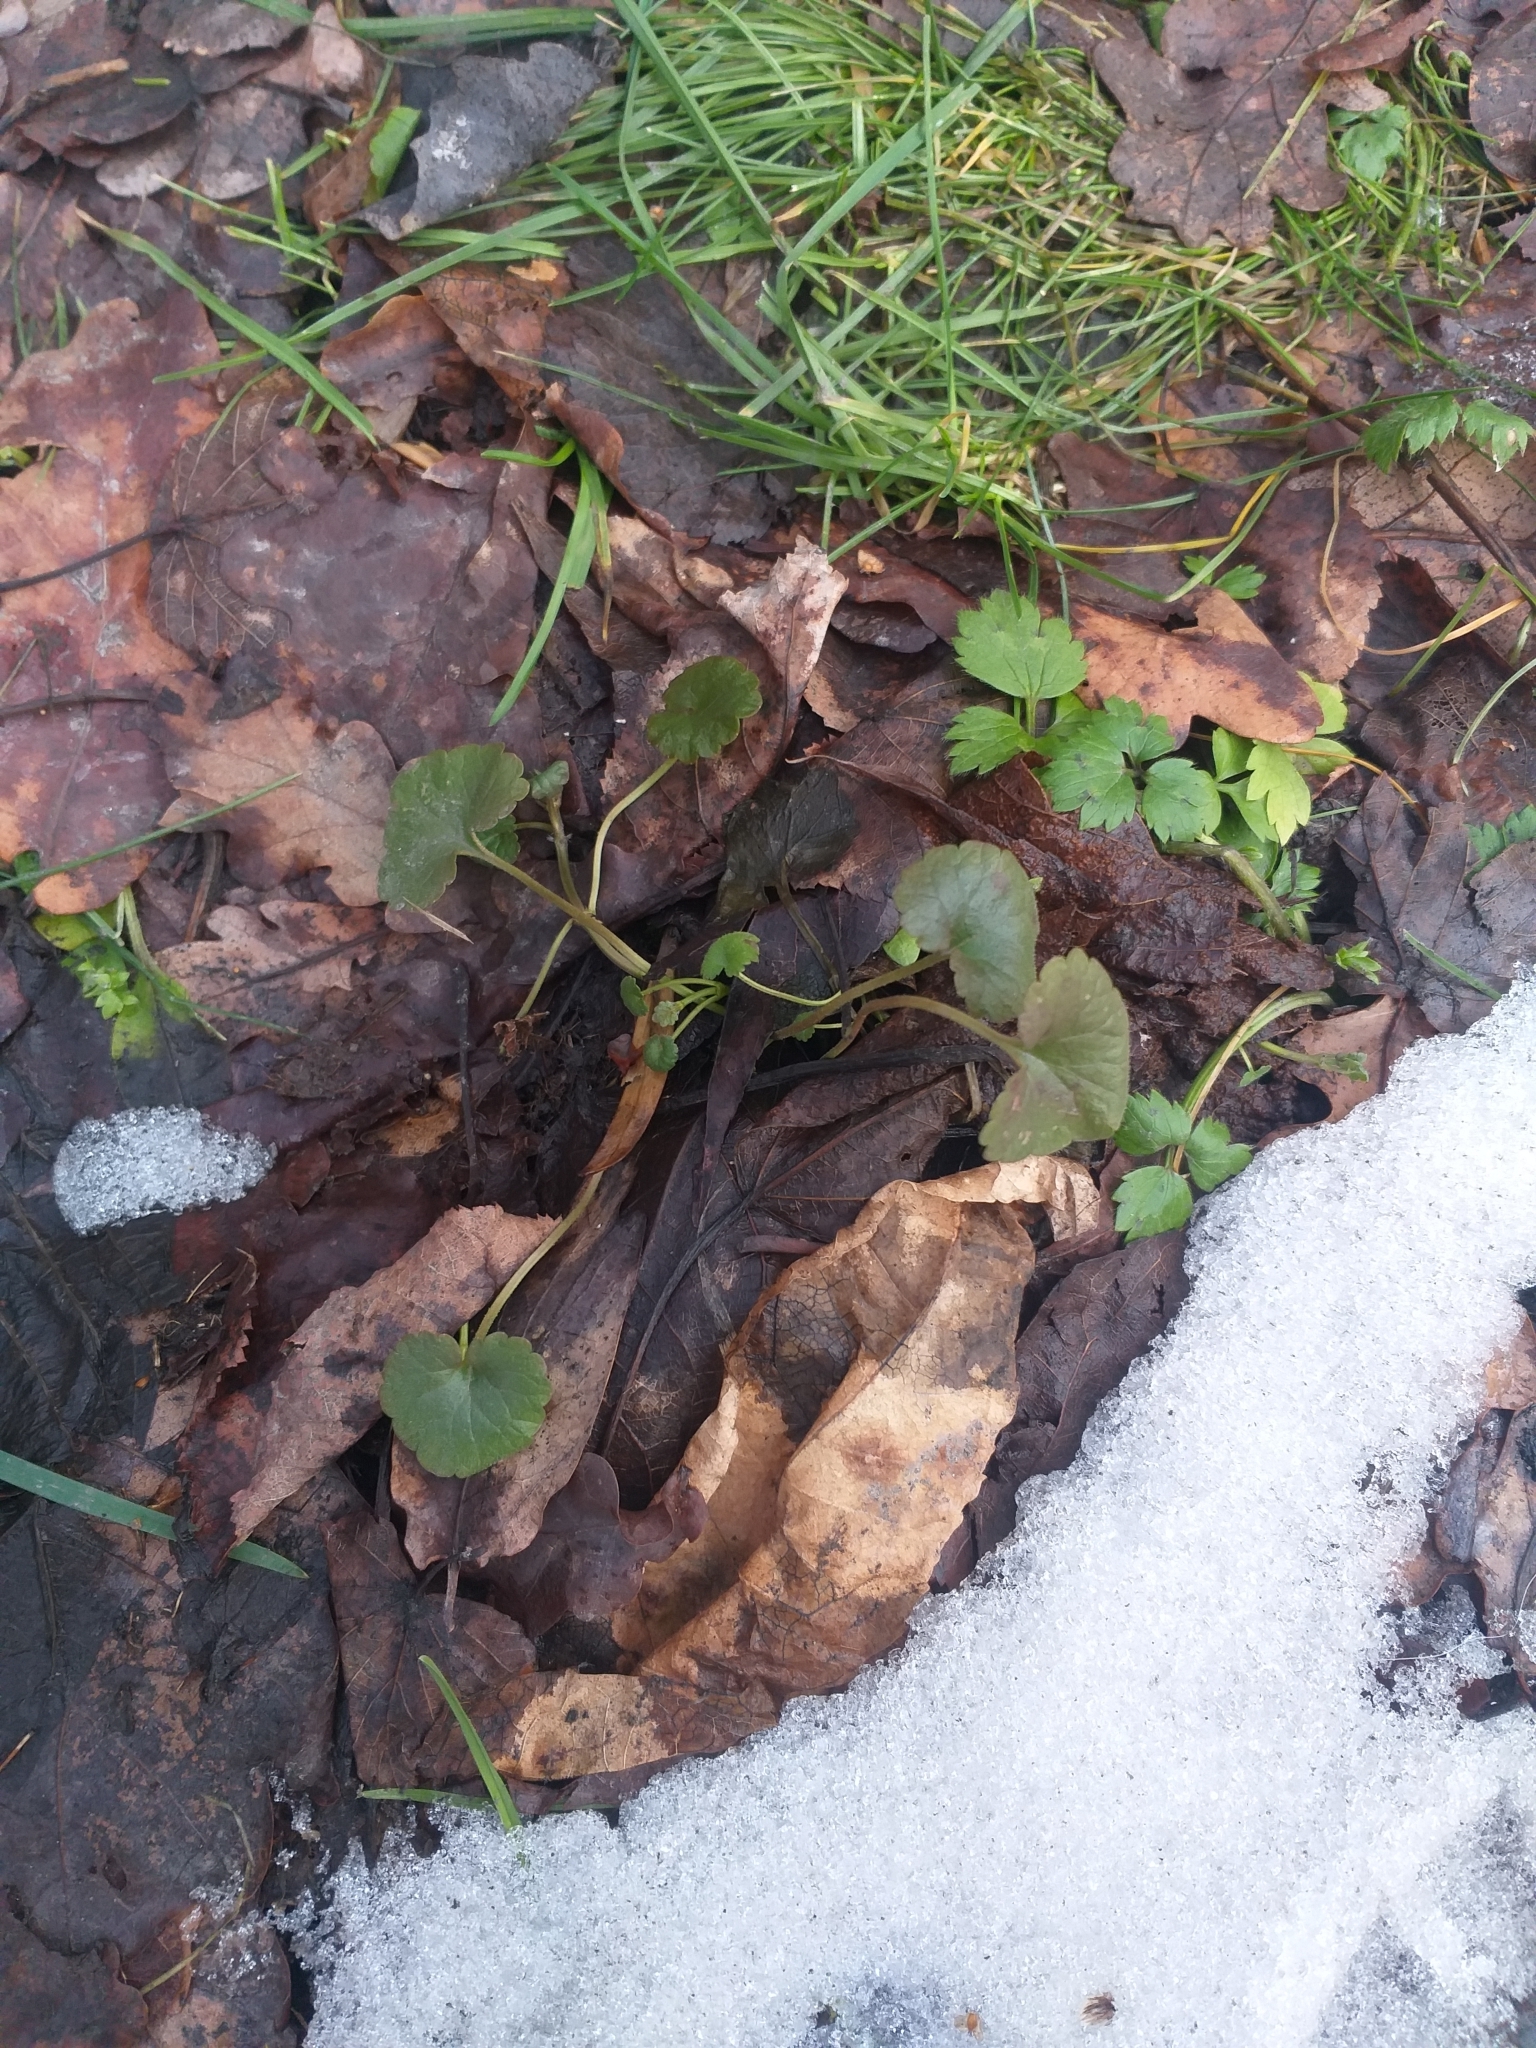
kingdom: Plantae
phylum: Tracheophyta
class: Magnoliopsida
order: Lamiales
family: Lamiaceae
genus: Glechoma
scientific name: Glechoma hederacea
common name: Ground ivy
